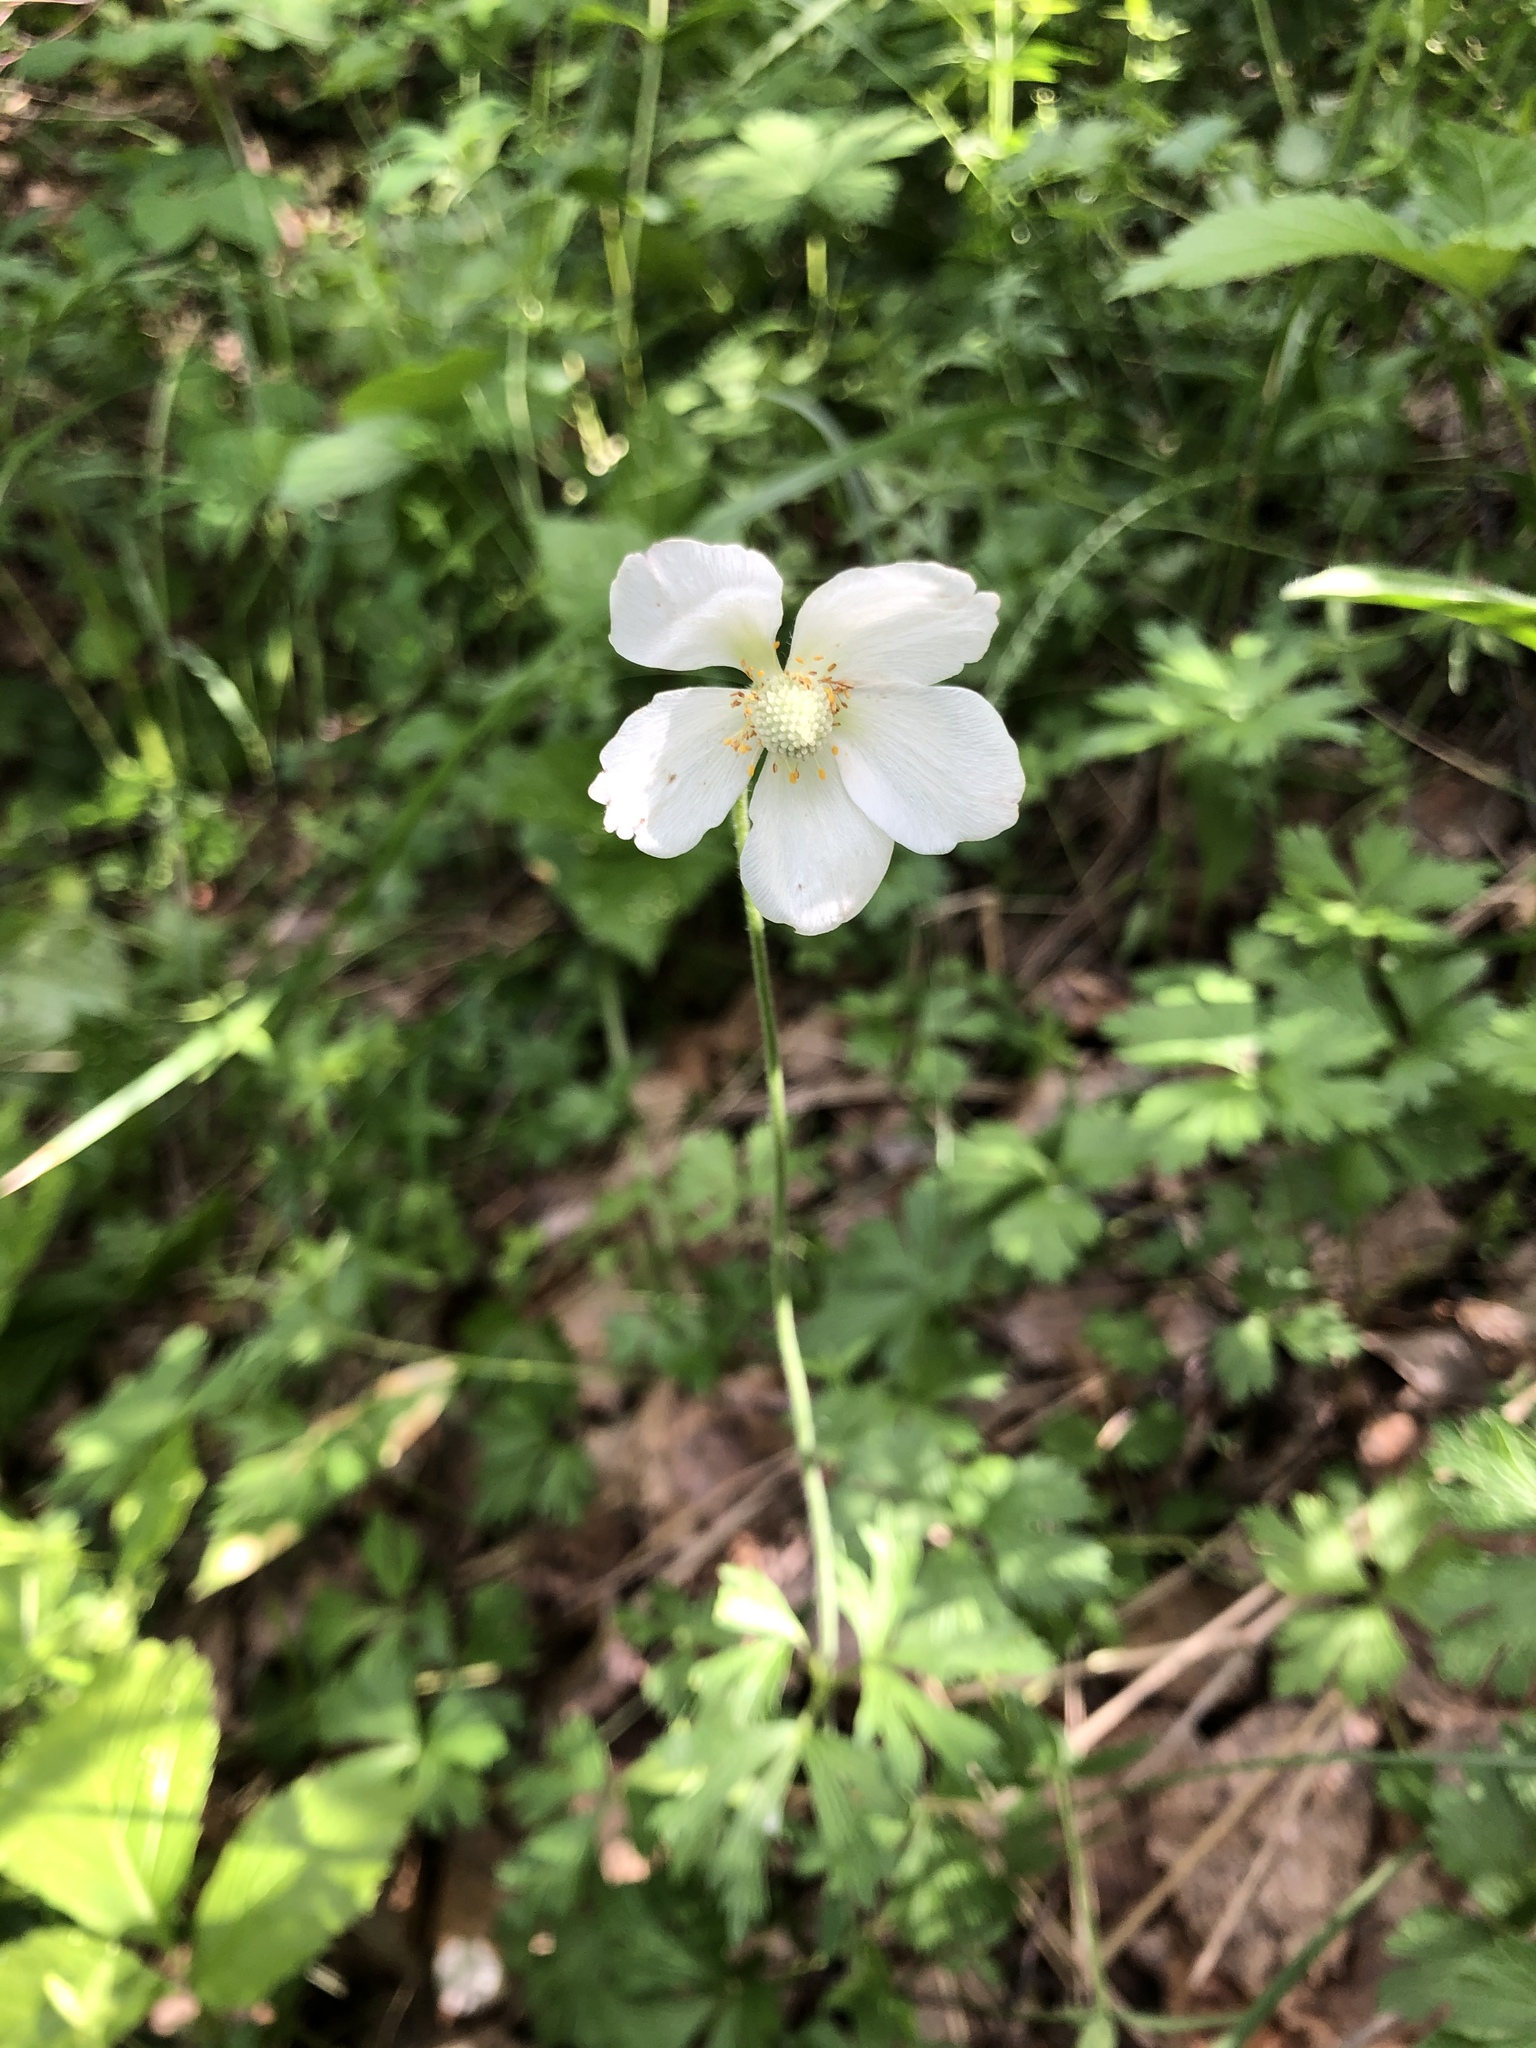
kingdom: Plantae
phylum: Tracheophyta
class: Magnoliopsida
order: Ranunculales
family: Ranunculaceae
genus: Anemone
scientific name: Anemone sylvestris
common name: Snowdrop anemone
